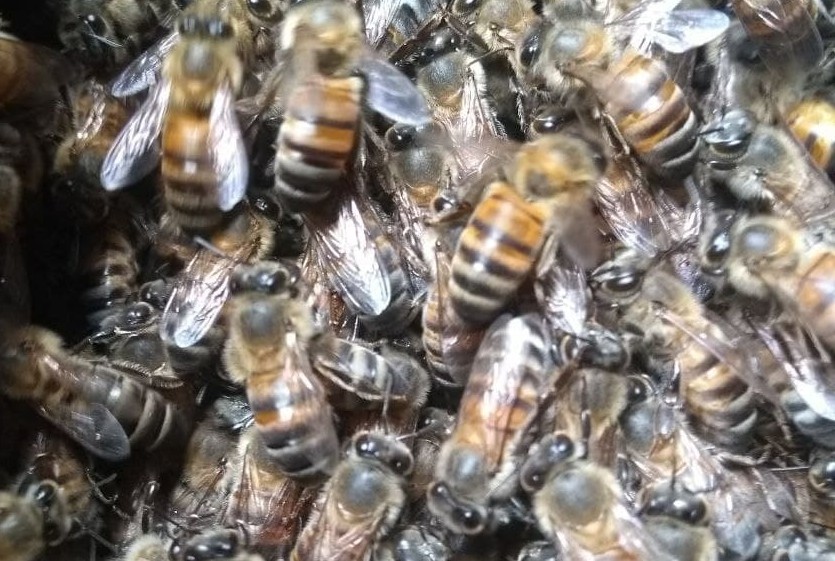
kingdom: Animalia
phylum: Arthropoda
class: Insecta
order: Hymenoptera
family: Apidae
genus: Apis
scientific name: Apis mellifera
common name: Honey bee
